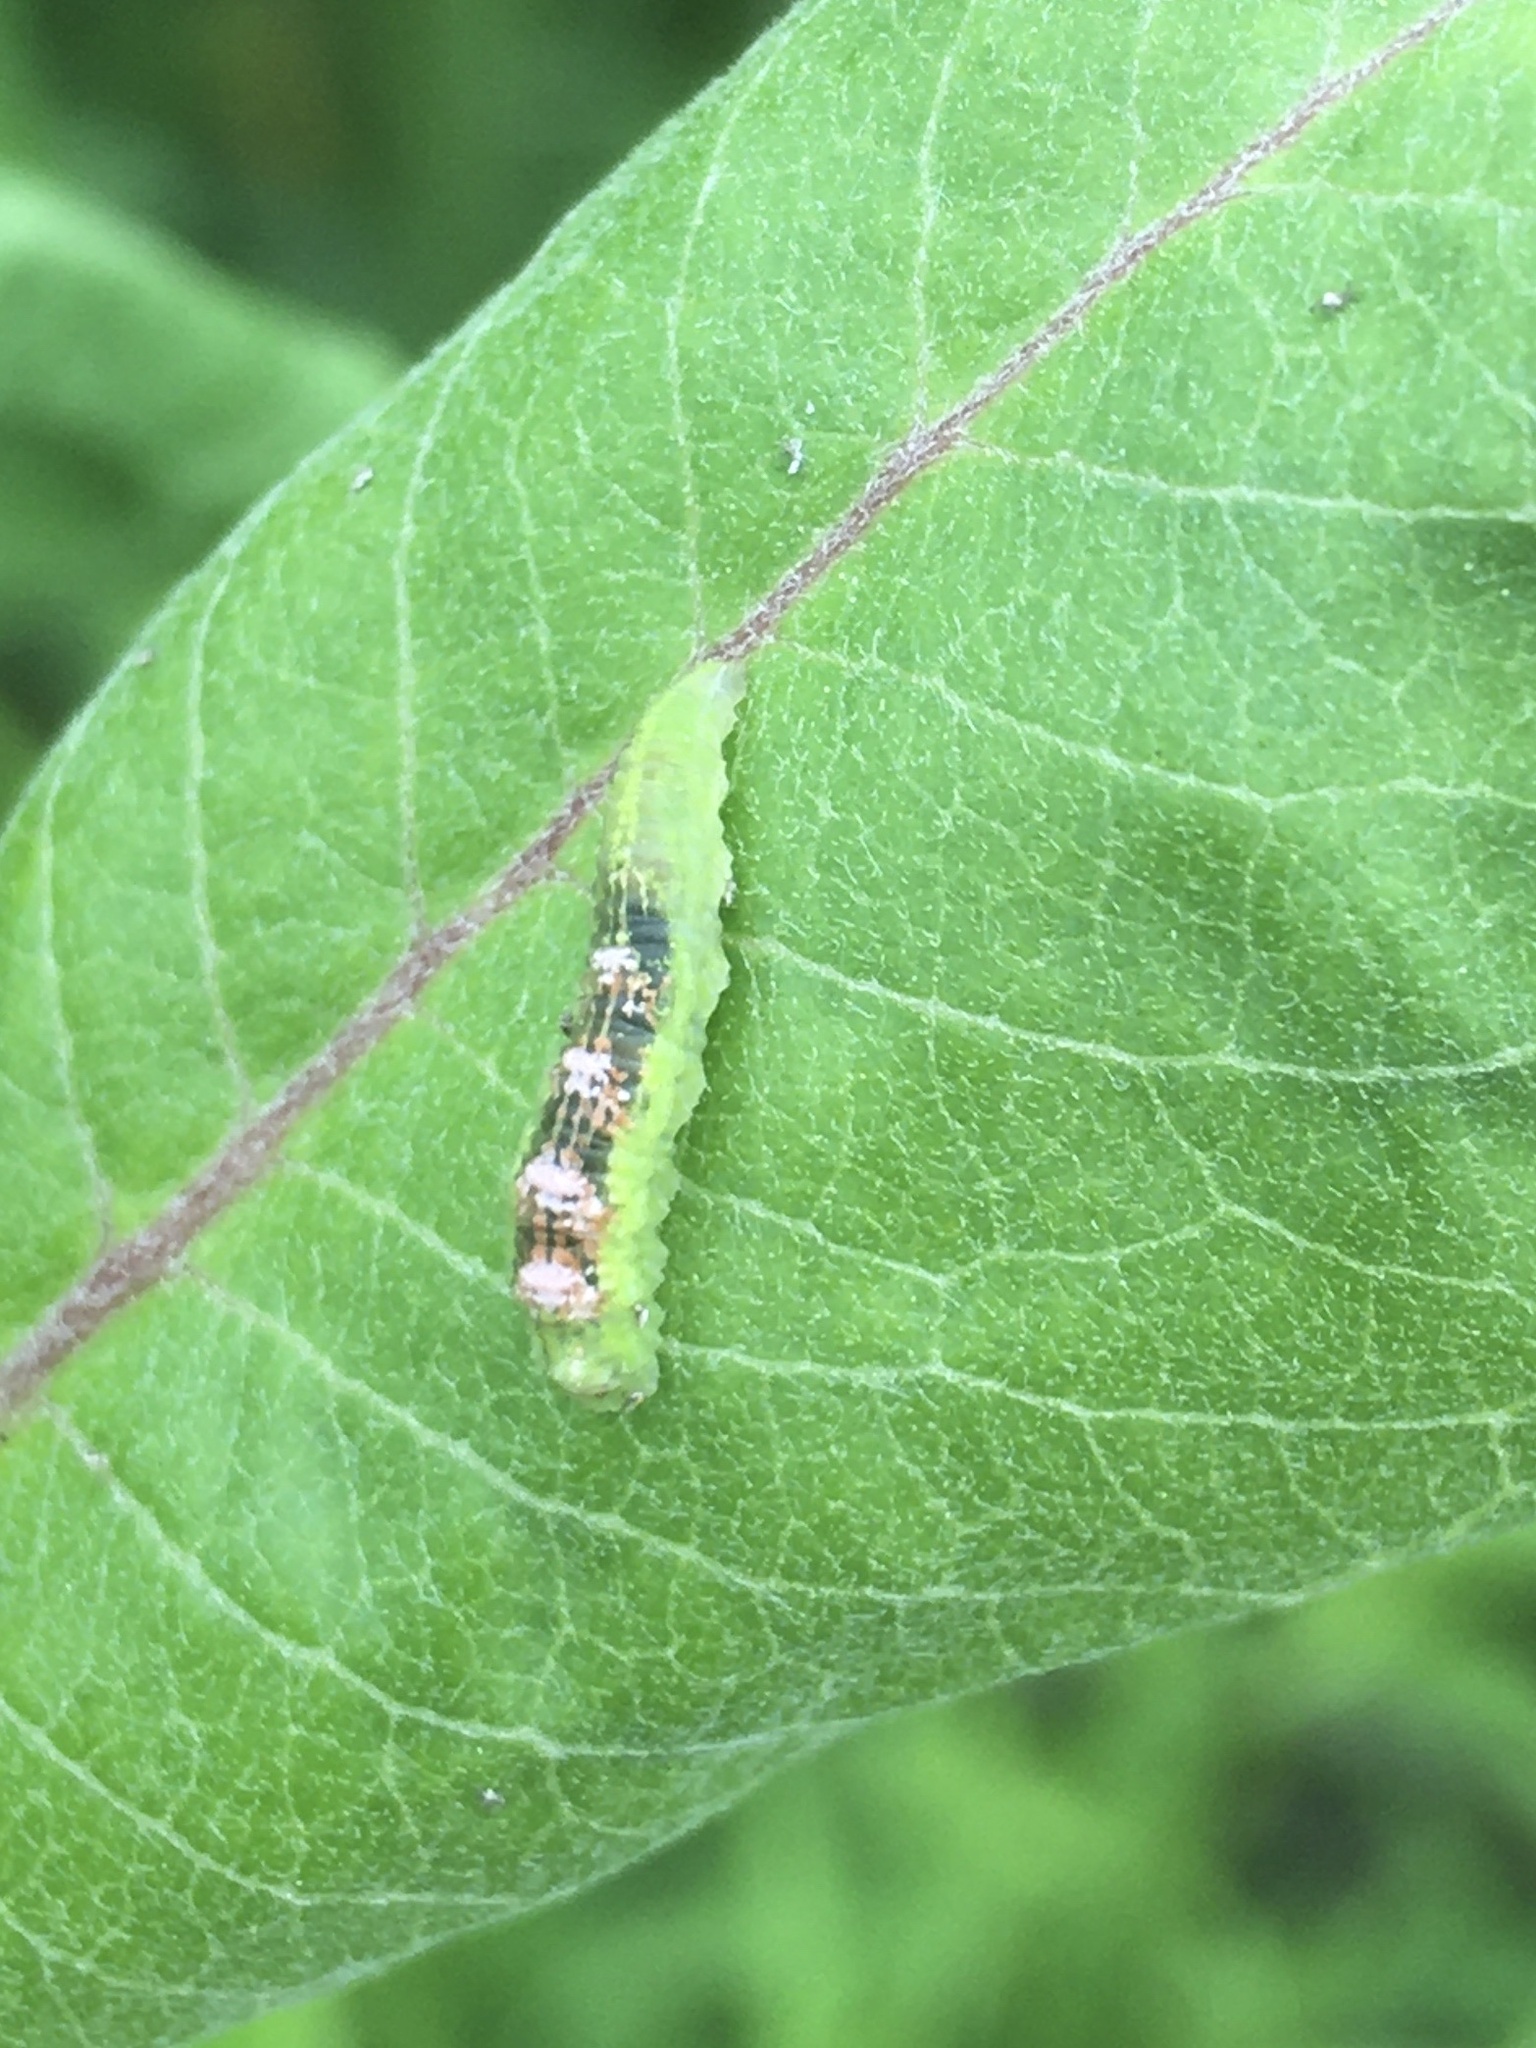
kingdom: Animalia
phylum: Arthropoda
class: Insecta
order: Diptera
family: Syrphidae
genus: Eupeodes
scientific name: Eupeodes pomus
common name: Short-tailed aphideater
